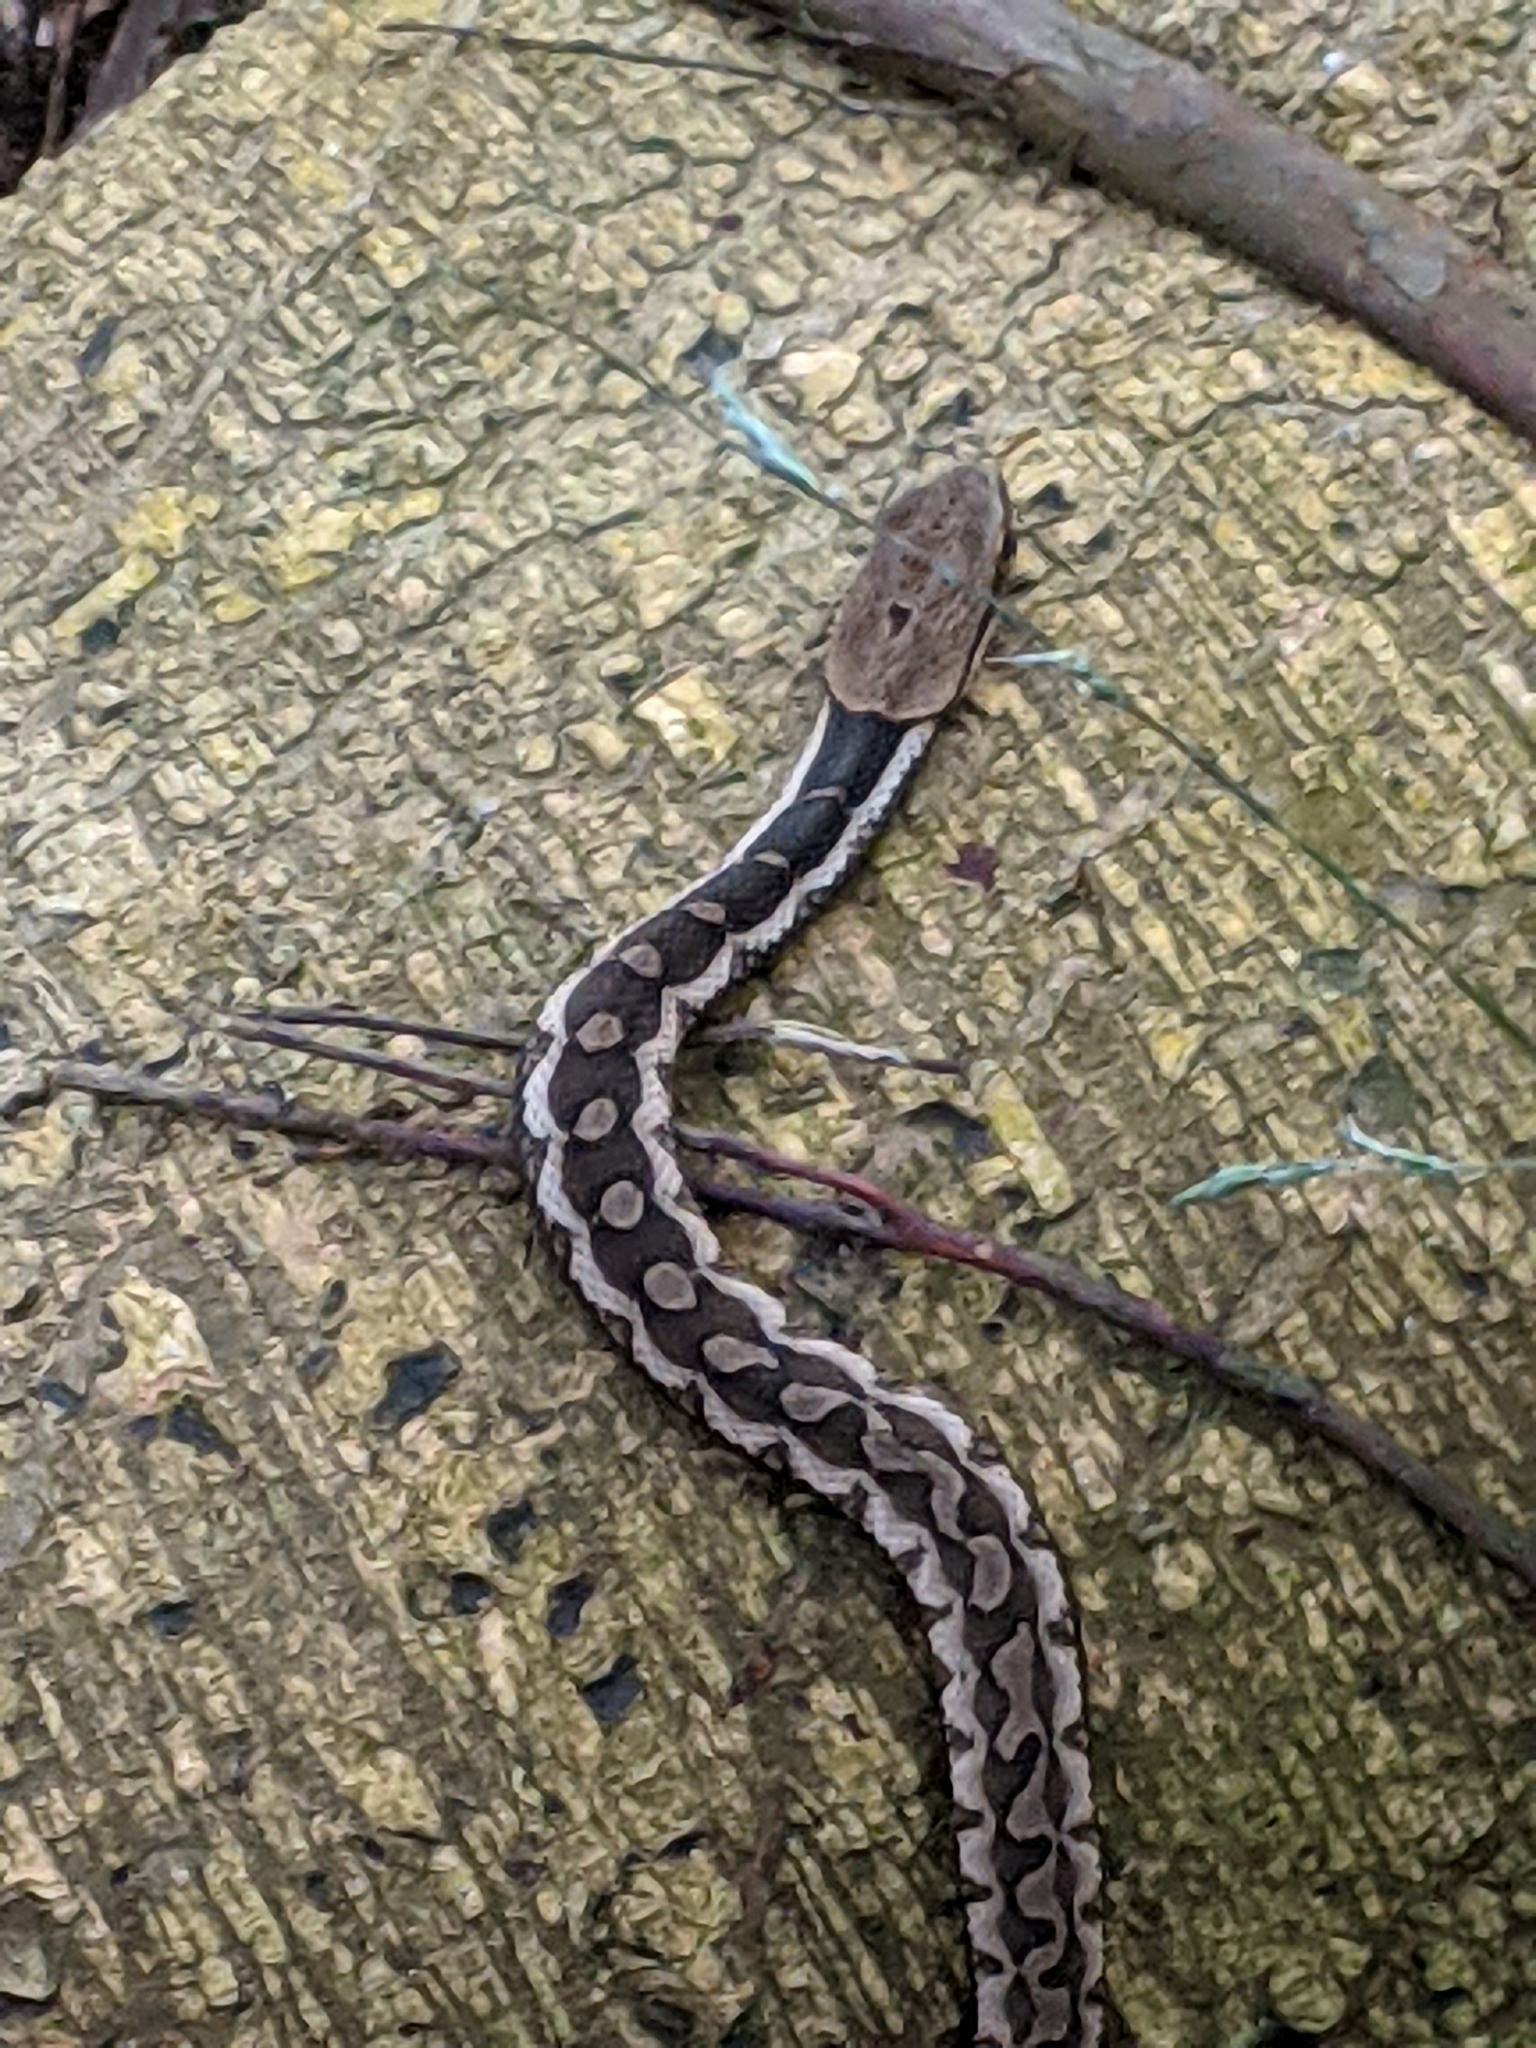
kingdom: Animalia
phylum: Chordata
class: Squamata
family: Colubridae
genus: Pseudagkistrodon
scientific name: Pseudagkistrodon rudis
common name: False habu
